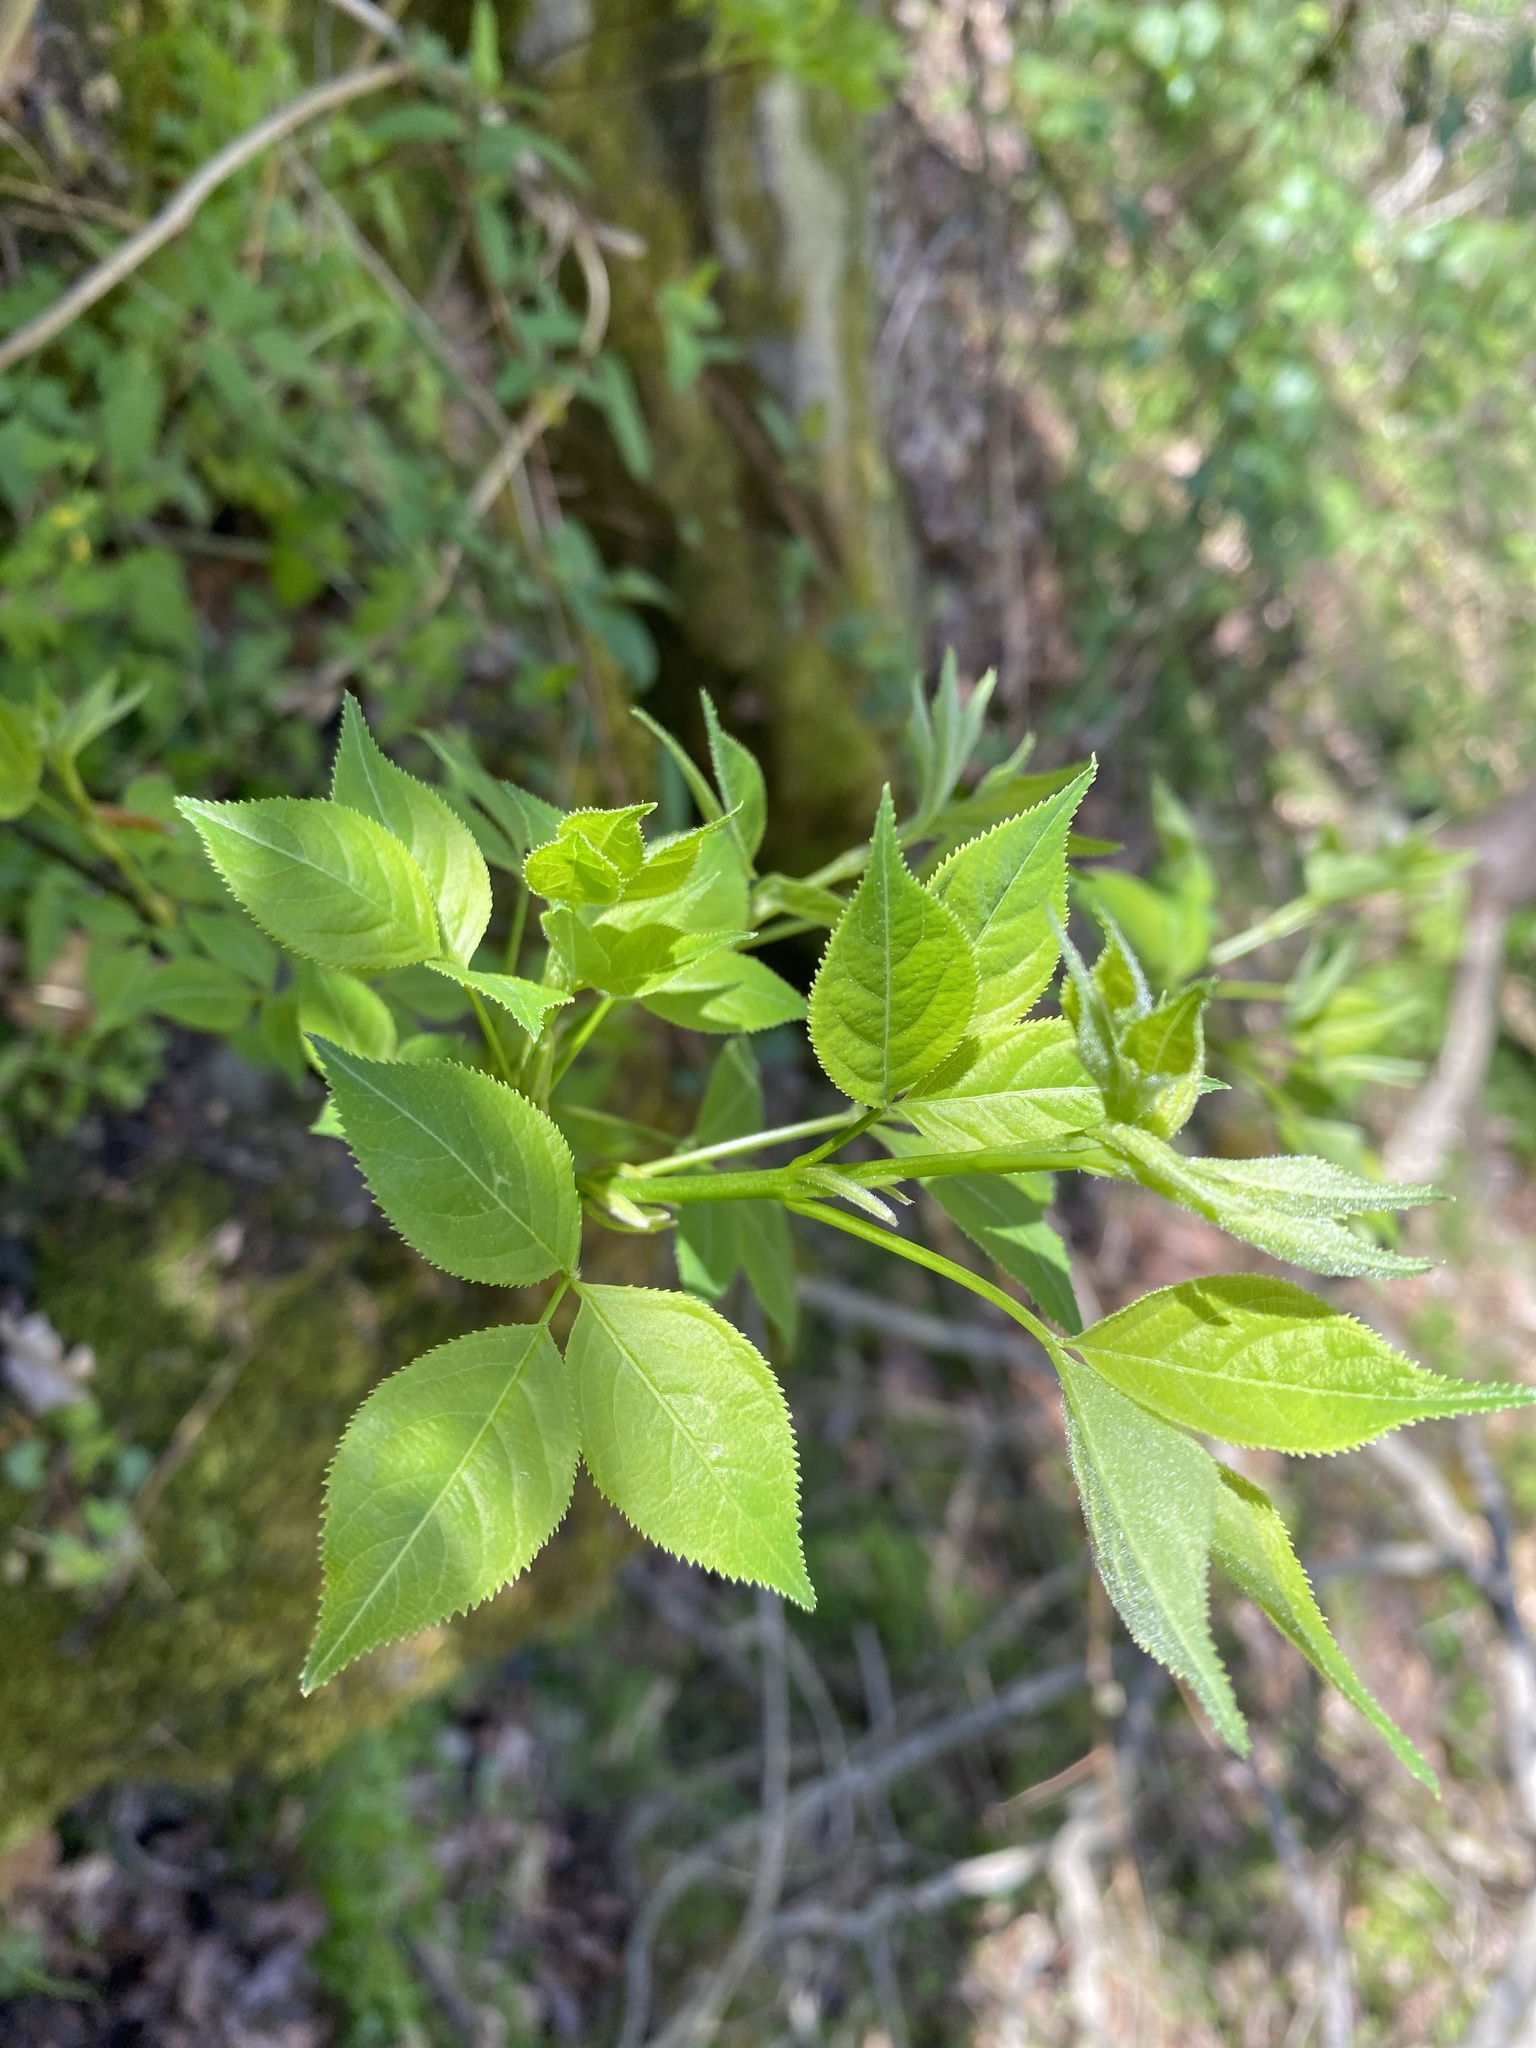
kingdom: Plantae
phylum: Tracheophyta
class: Magnoliopsida
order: Crossosomatales
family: Staphyleaceae
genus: Staphylea
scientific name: Staphylea trifolia
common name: American bladdernut
